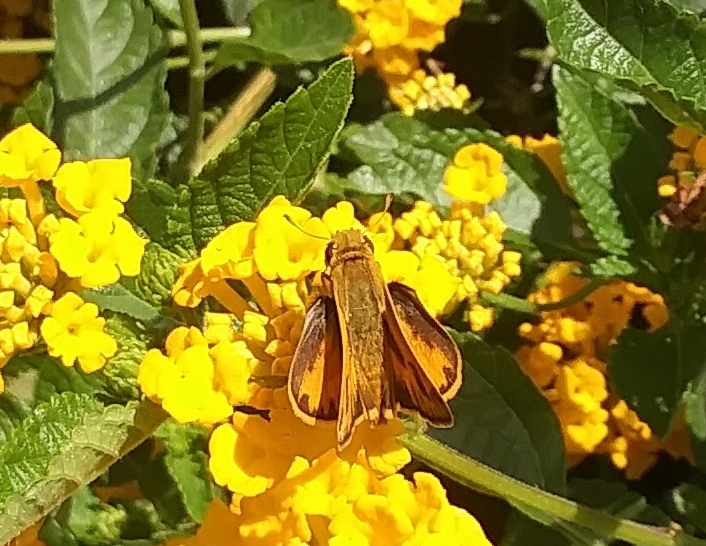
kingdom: Animalia
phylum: Arthropoda
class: Insecta
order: Lepidoptera
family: Hesperiidae
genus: Hylephila
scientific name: Hylephila phyleus
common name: Fiery skipper
